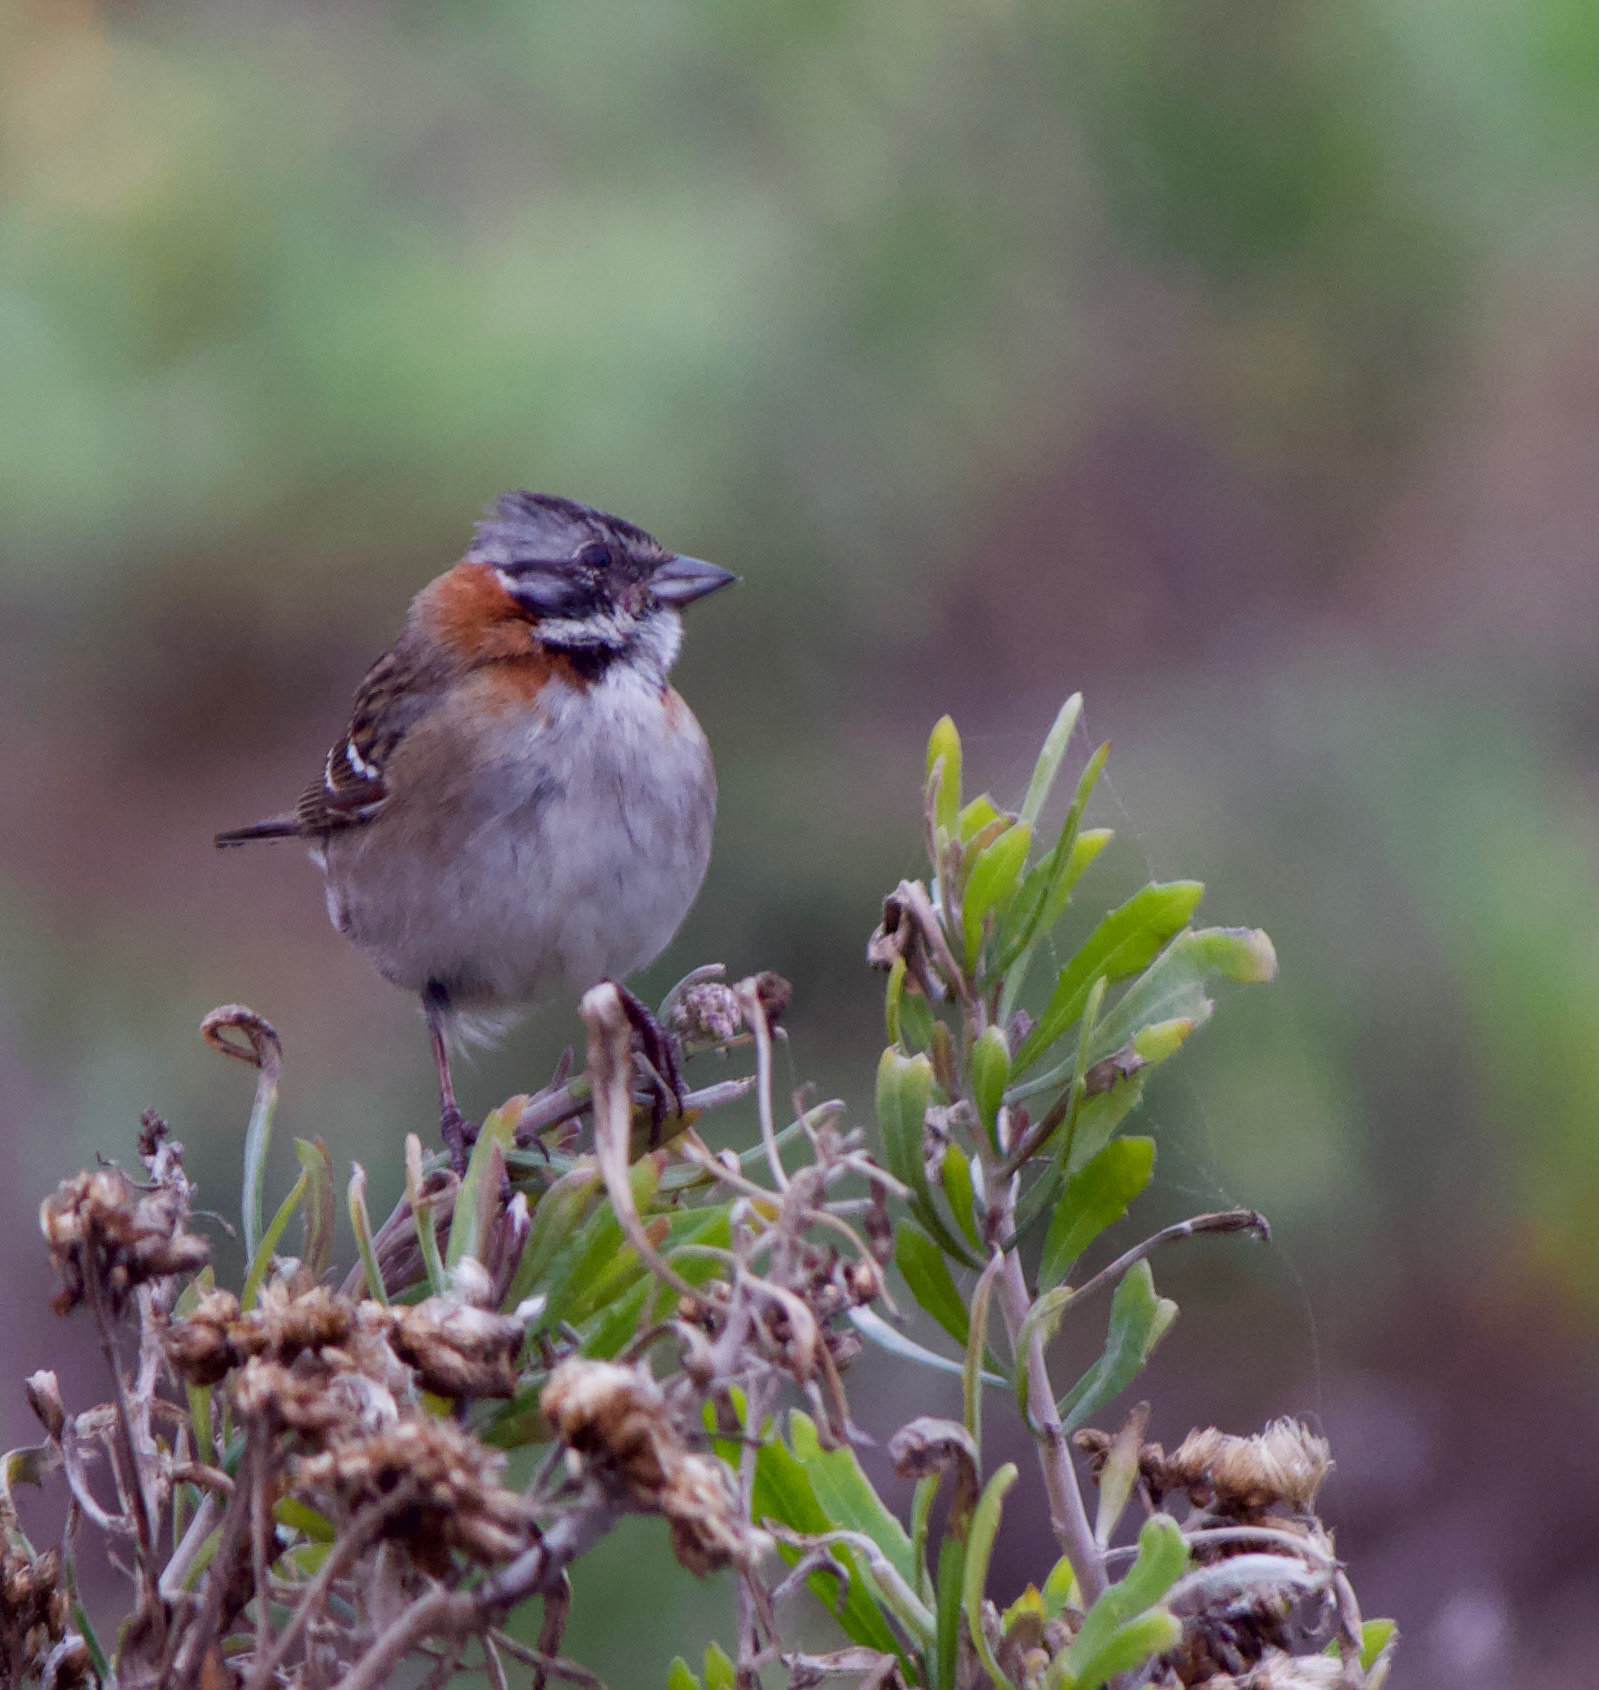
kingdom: Animalia
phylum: Chordata
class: Aves
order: Passeriformes
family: Passerellidae
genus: Zonotrichia
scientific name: Zonotrichia capensis
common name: Rufous-collared sparrow
